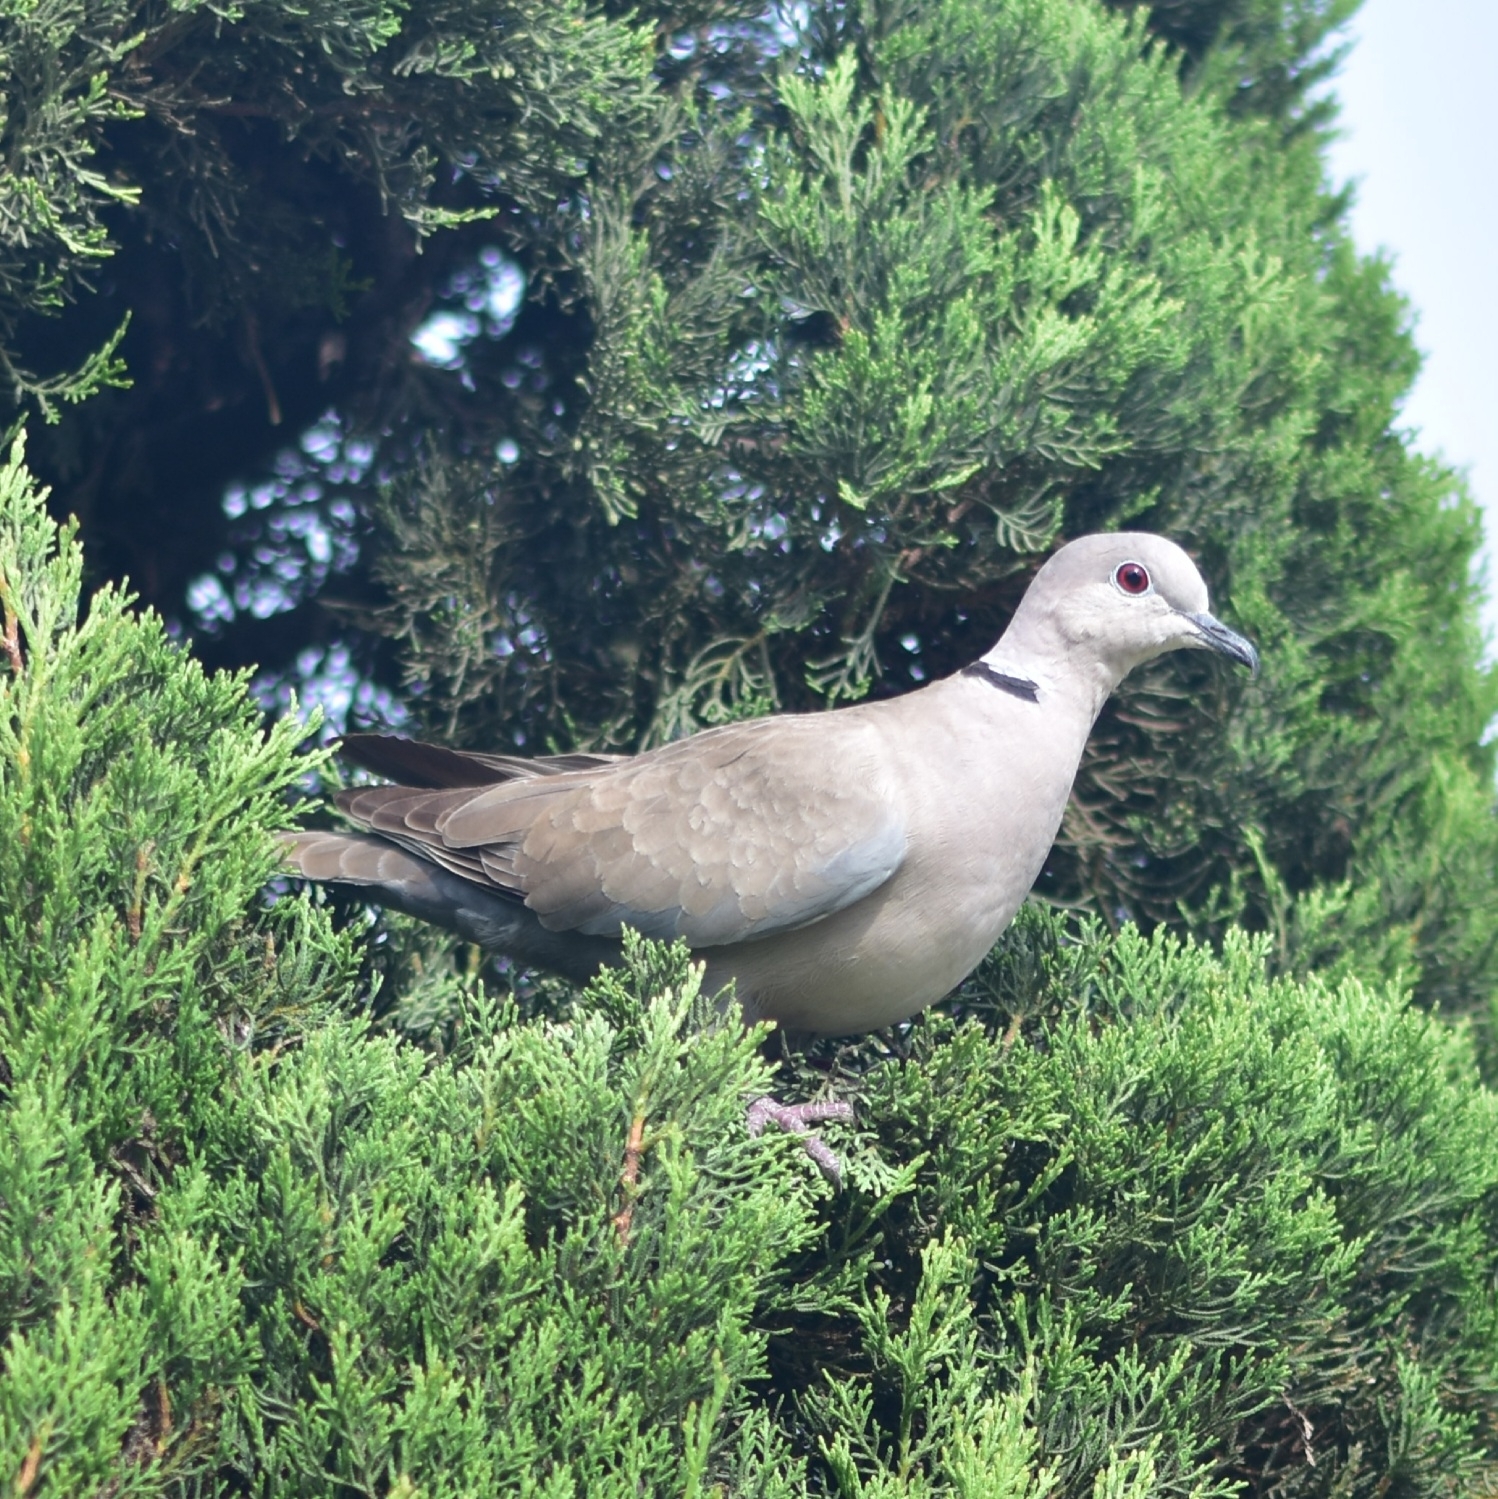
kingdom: Animalia
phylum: Chordata
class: Aves
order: Columbiformes
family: Columbidae
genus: Streptopelia
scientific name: Streptopelia decaocto
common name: Eurasian collared dove
